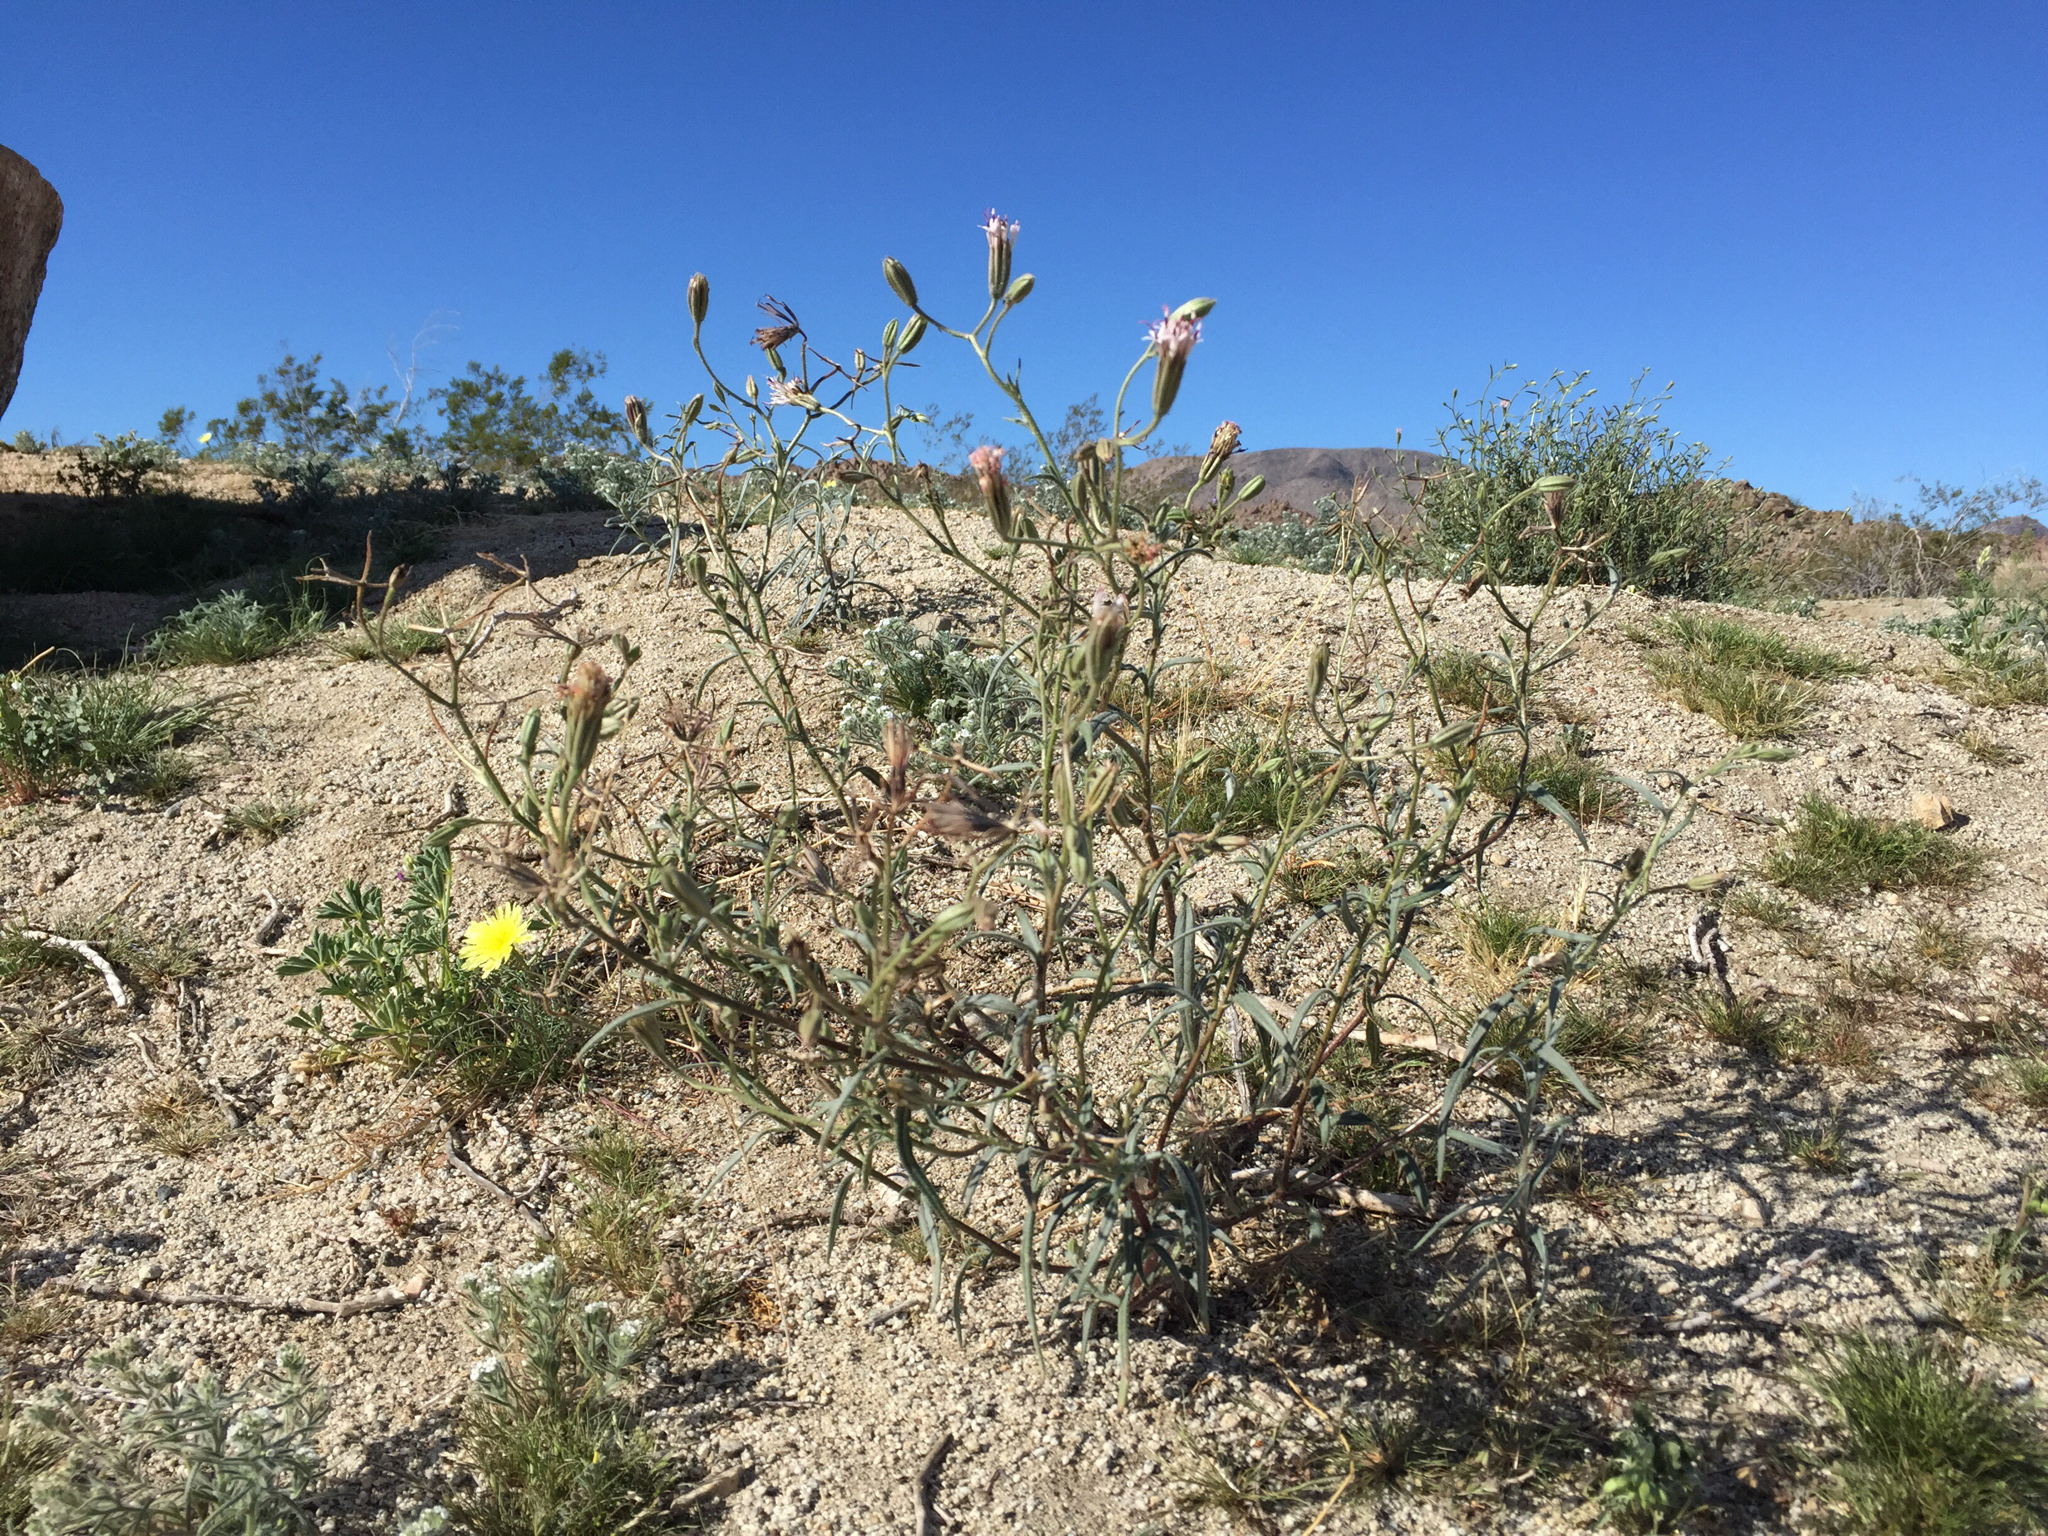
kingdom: Plantae
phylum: Tracheophyta
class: Magnoliopsida
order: Asterales
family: Asteraceae
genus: Palafoxia
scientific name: Palafoxia arida
